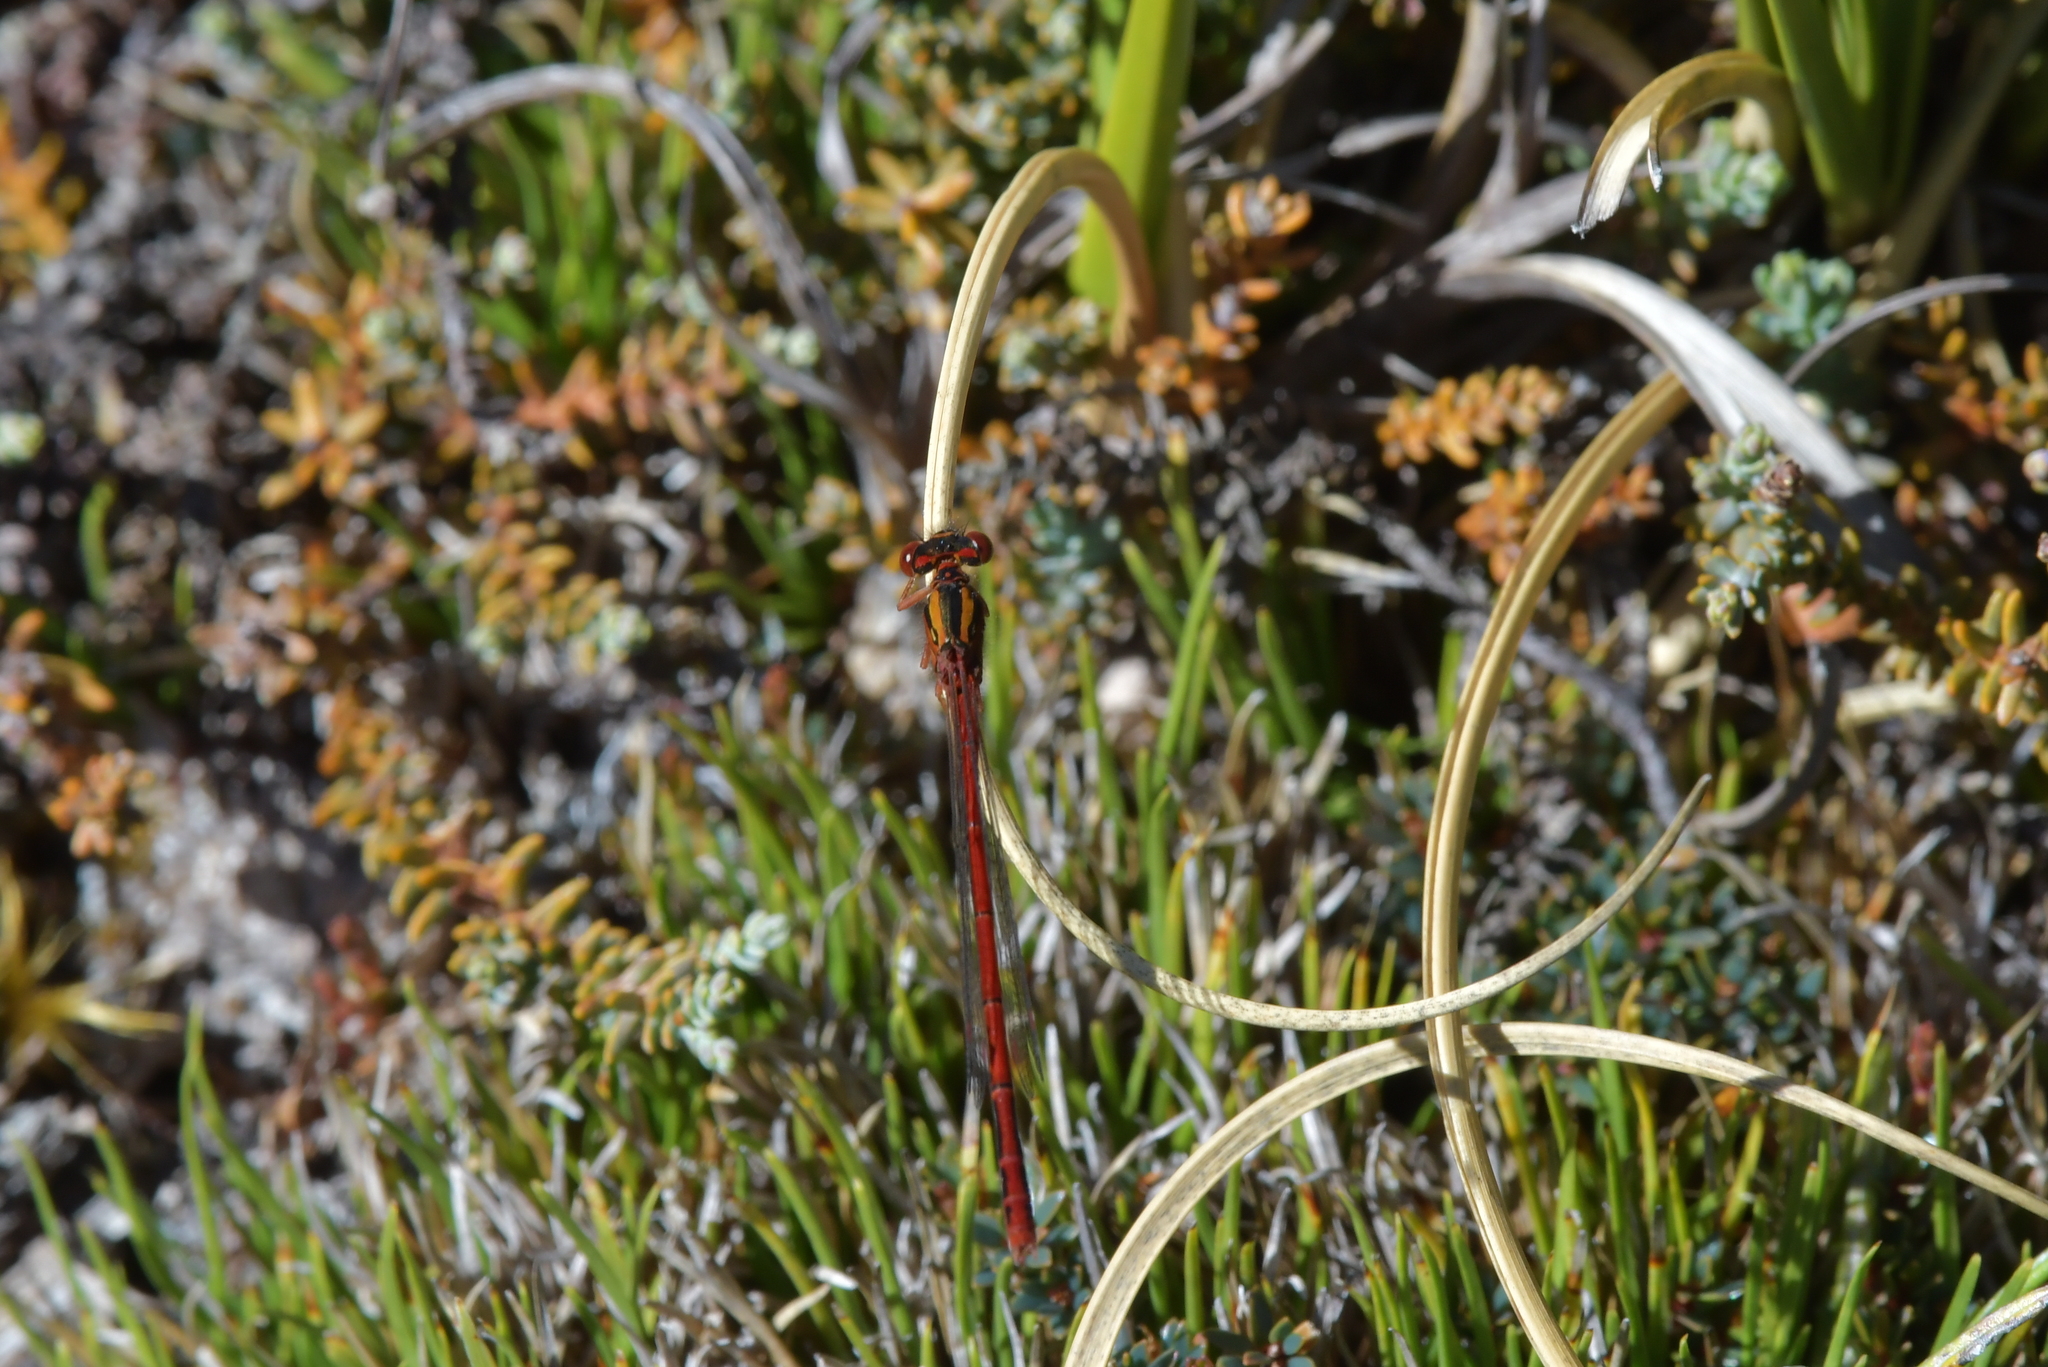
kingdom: Animalia
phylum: Arthropoda
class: Insecta
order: Odonata
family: Coenagrionidae
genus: Xanthocnemis
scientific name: Xanthocnemis zealandica
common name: Common redcoat damselfly
